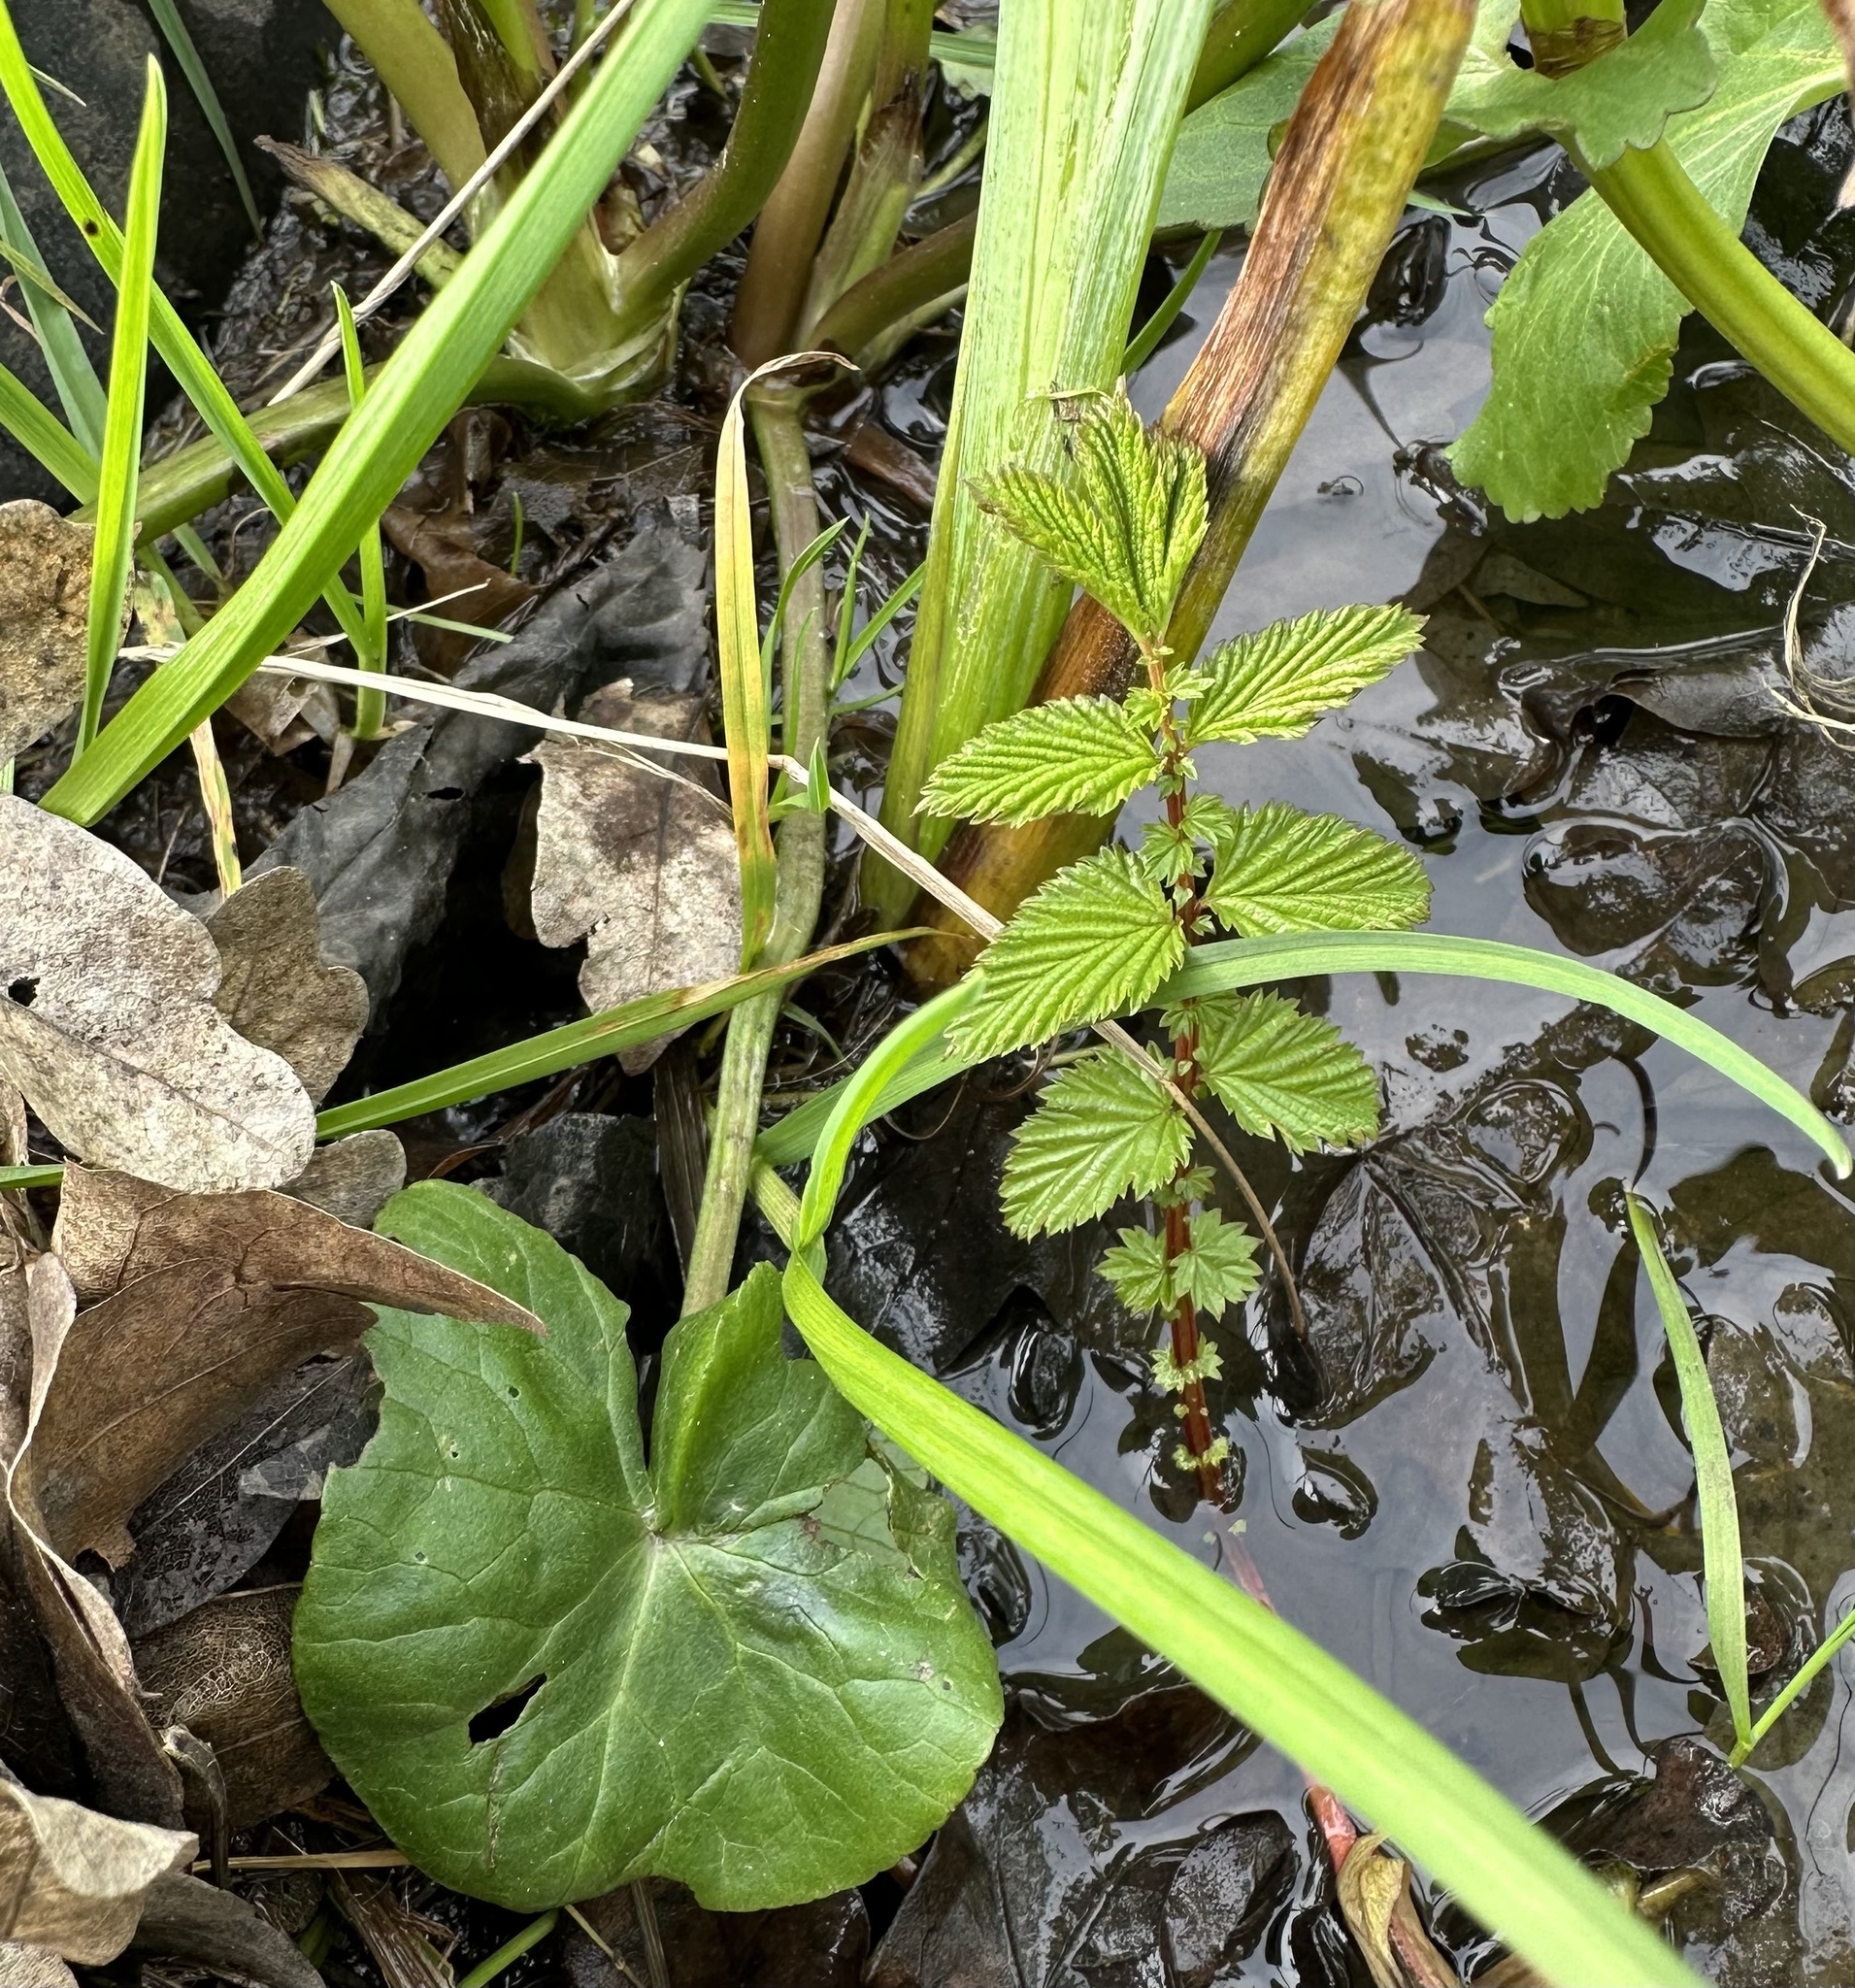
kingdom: Plantae
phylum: Tracheophyta
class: Magnoliopsida
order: Rosales
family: Rosaceae
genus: Filipendula
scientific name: Filipendula ulmaria
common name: Meadowsweet
